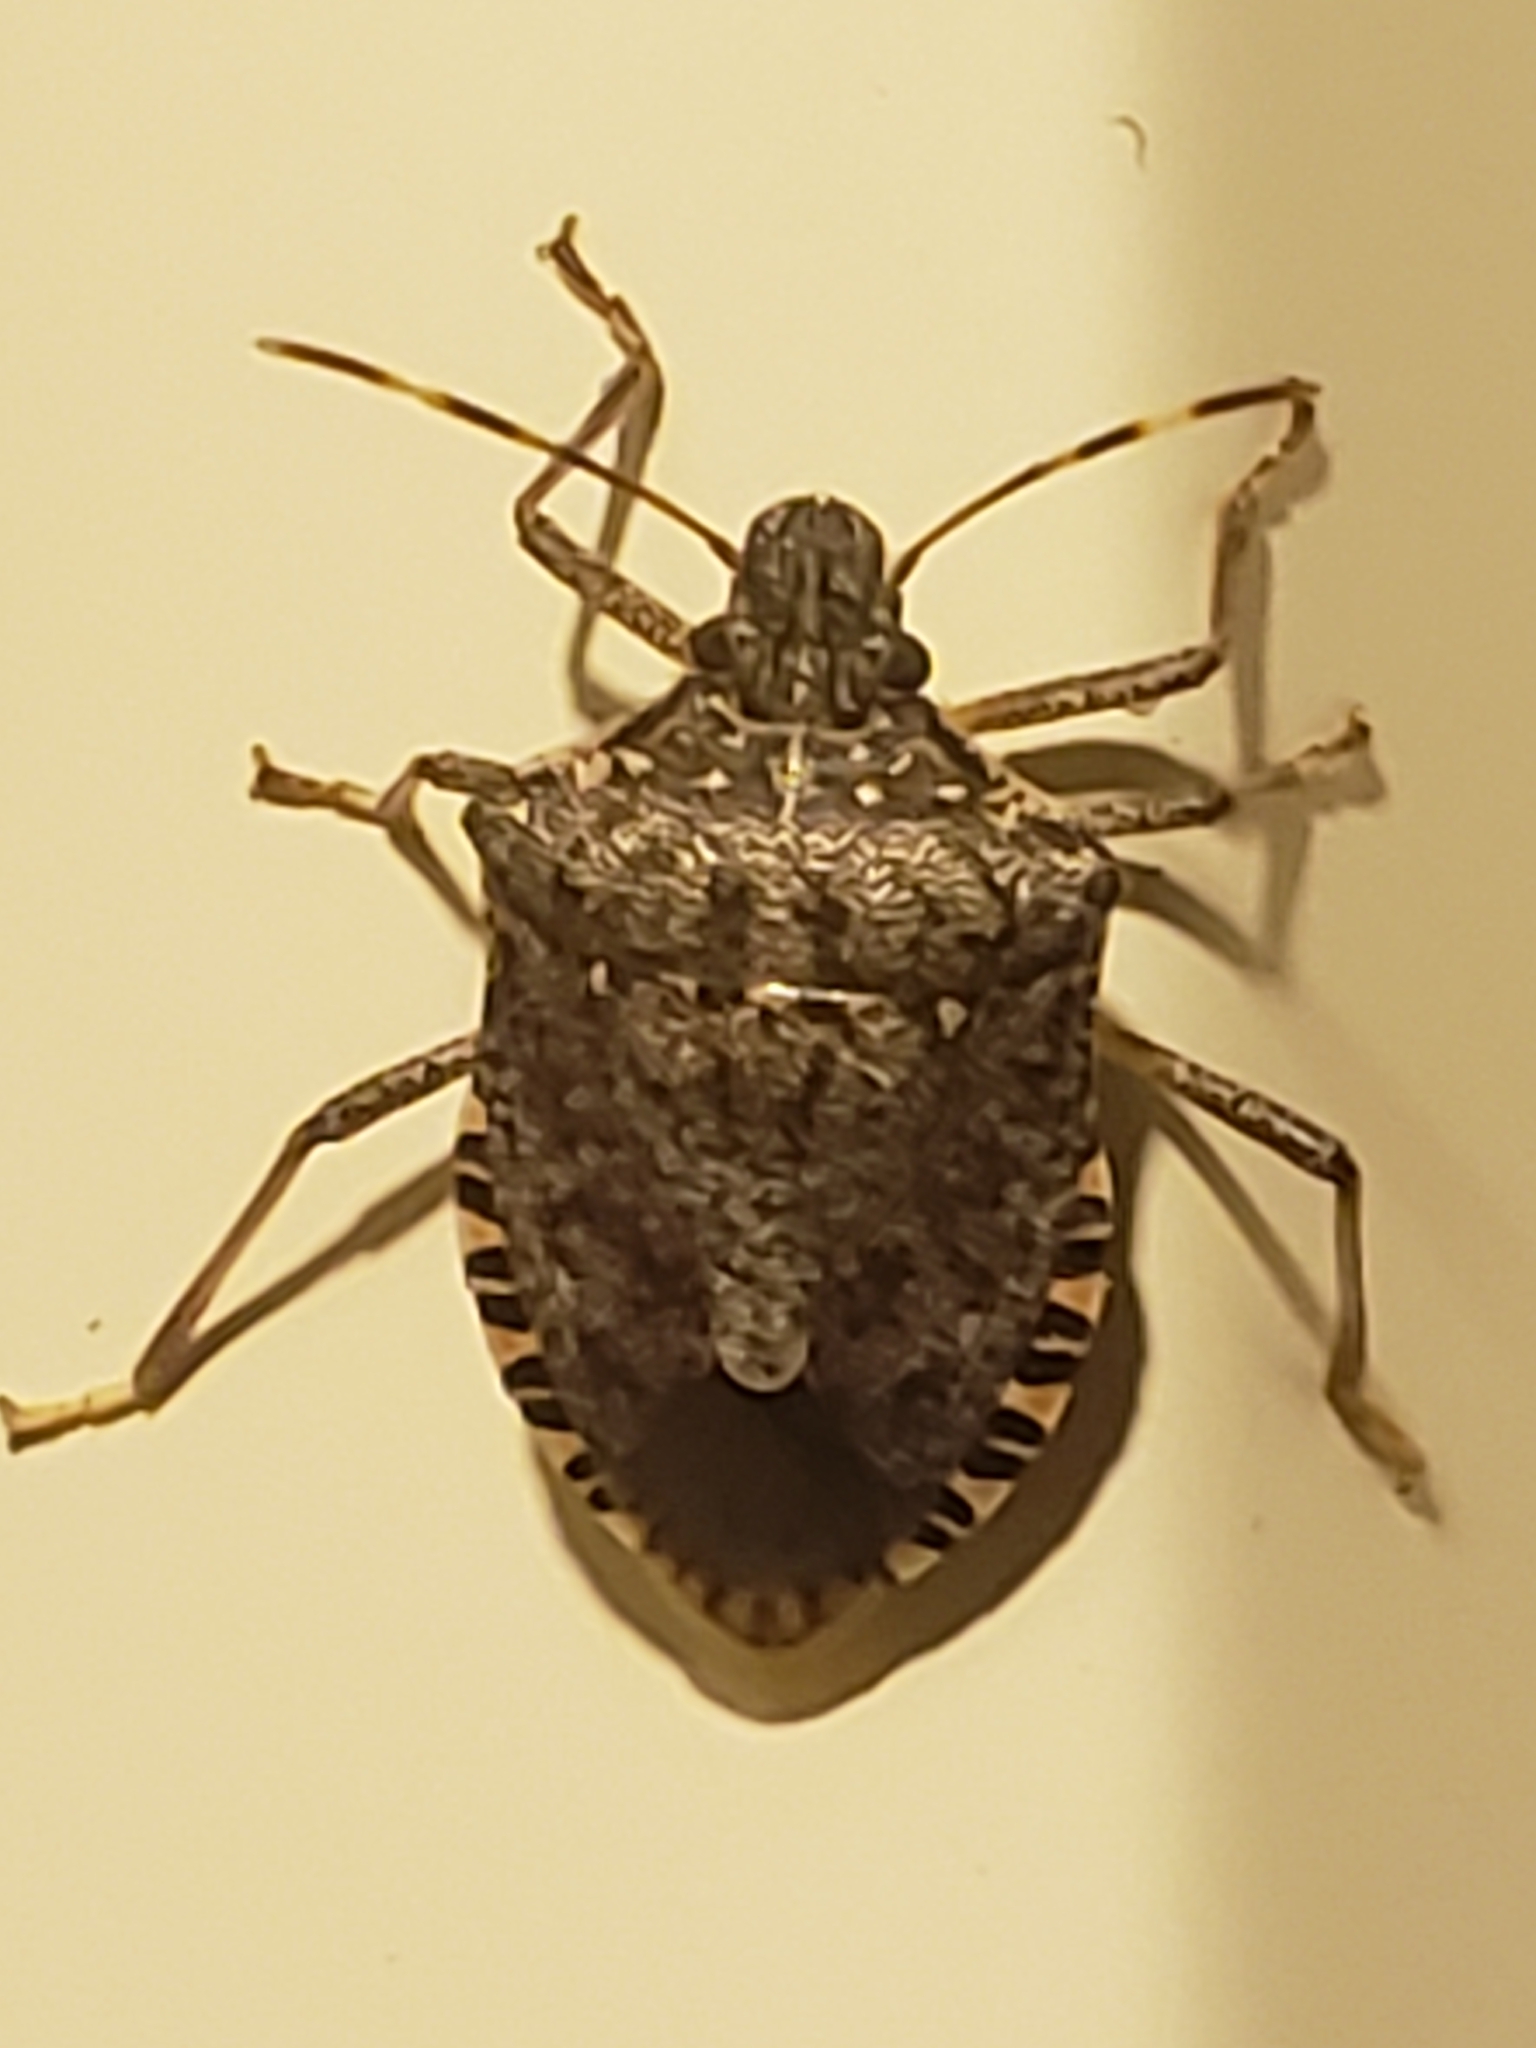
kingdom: Animalia
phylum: Arthropoda
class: Insecta
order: Hemiptera
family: Pentatomidae
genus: Halyomorpha
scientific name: Halyomorpha halys
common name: Brown marmorated stink bug
